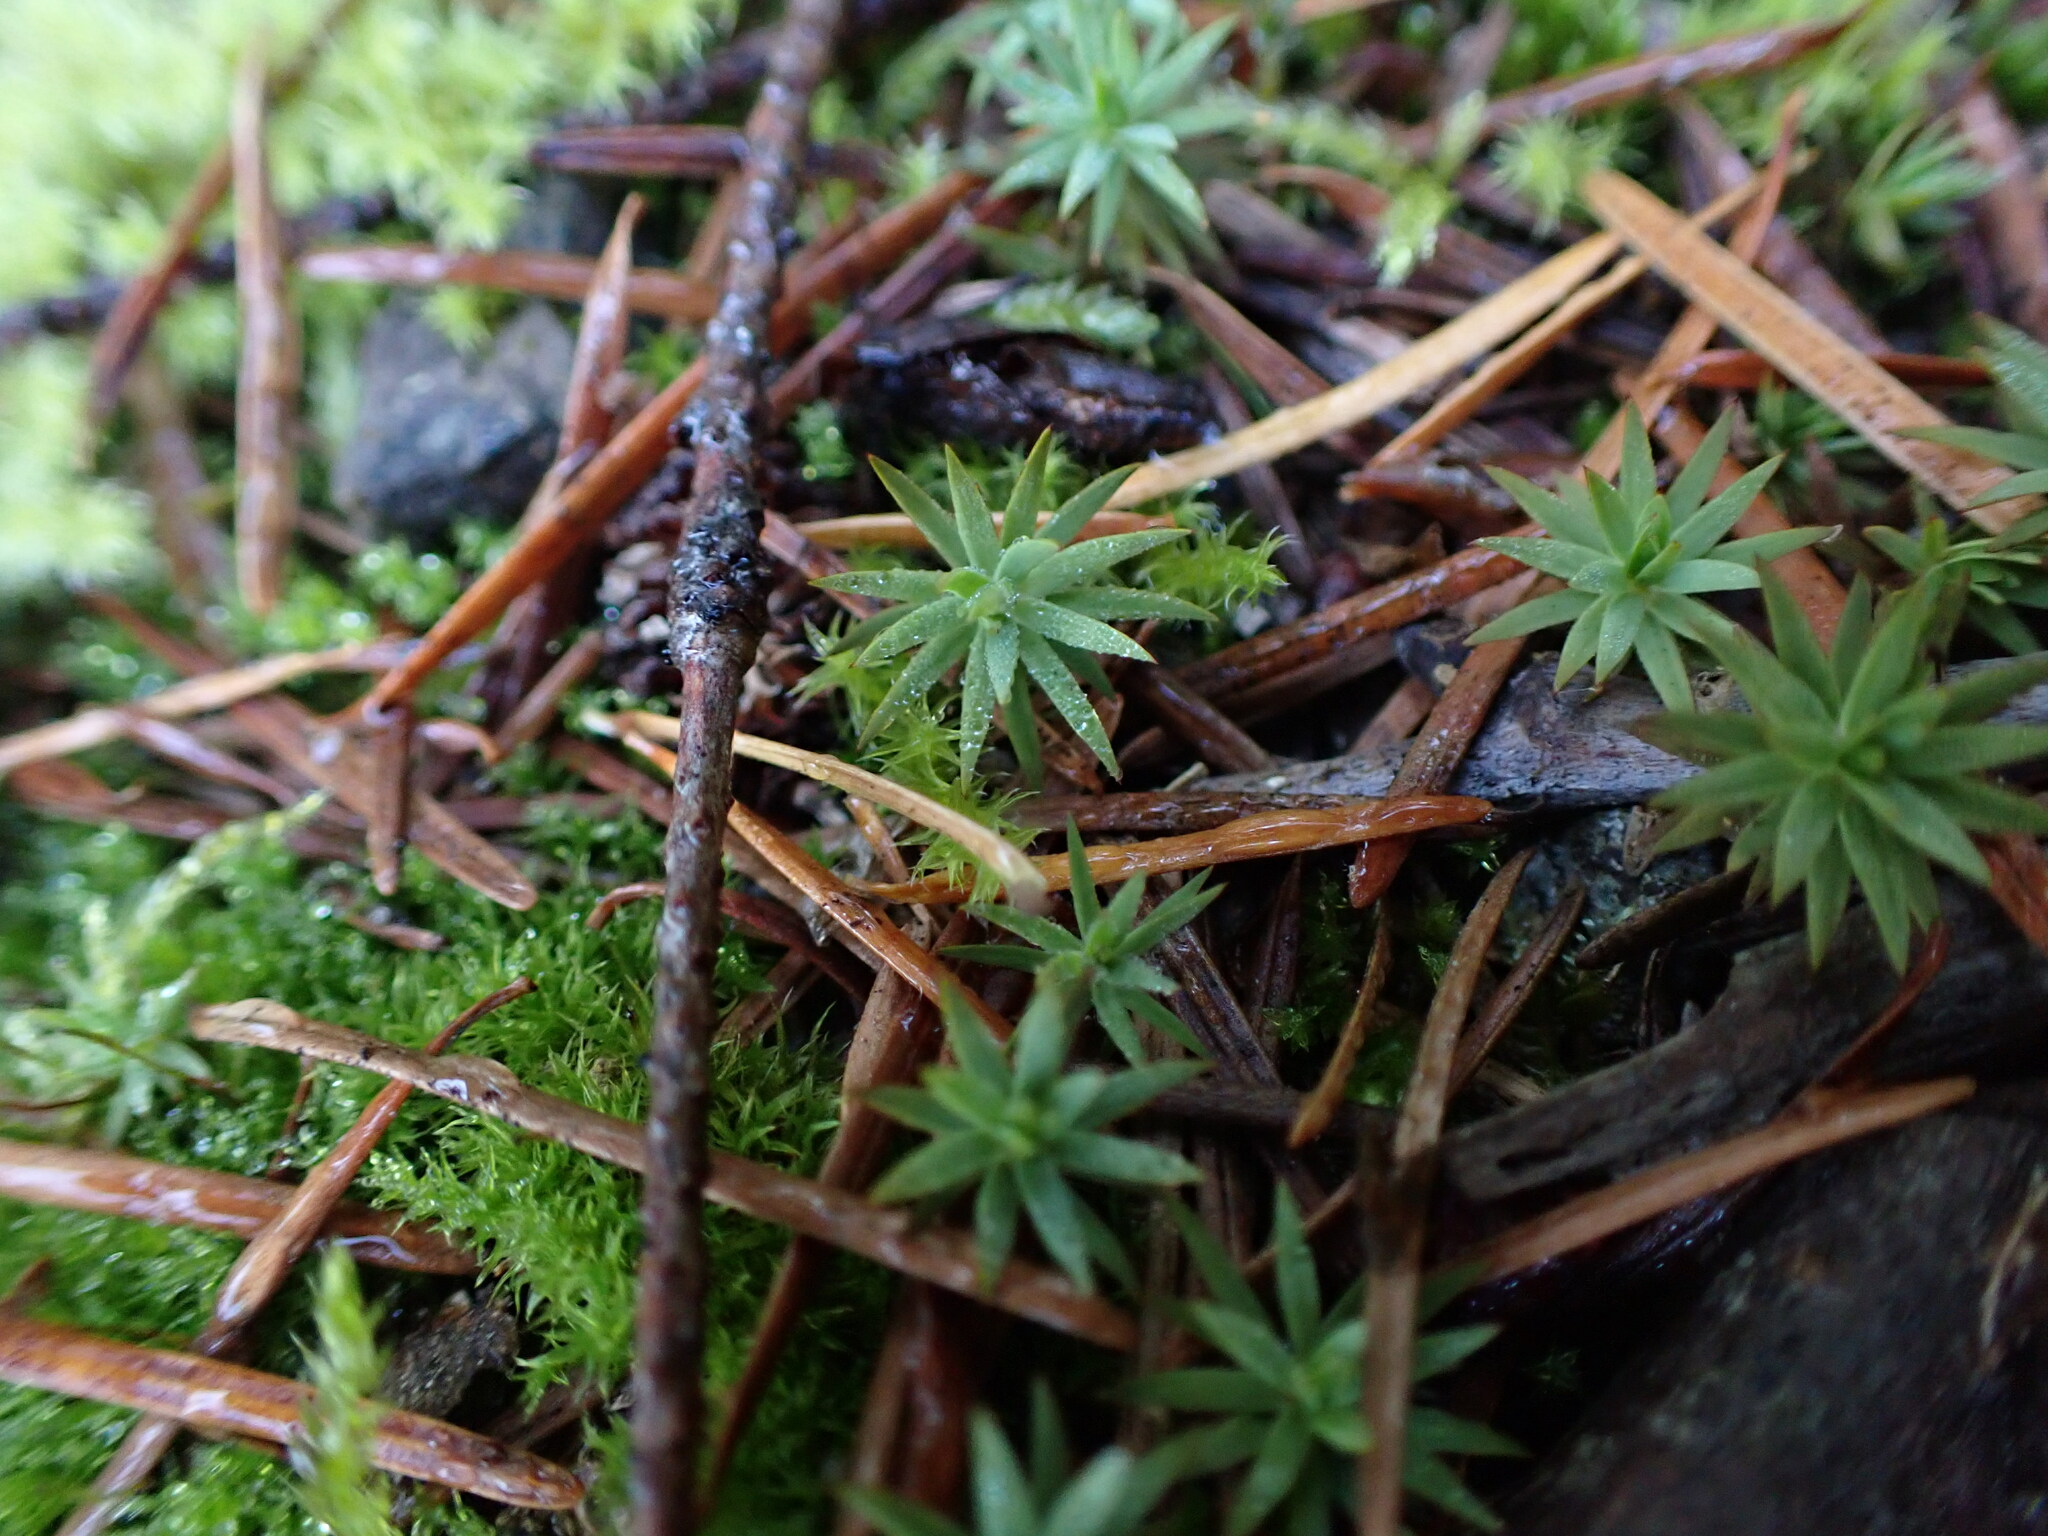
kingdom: Plantae
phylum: Bryophyta
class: Polytrichopsida
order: Polytrichales
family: Polytrichaceae
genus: Pogonatum
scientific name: Pogonatum urnigerum
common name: Urn hair moss
